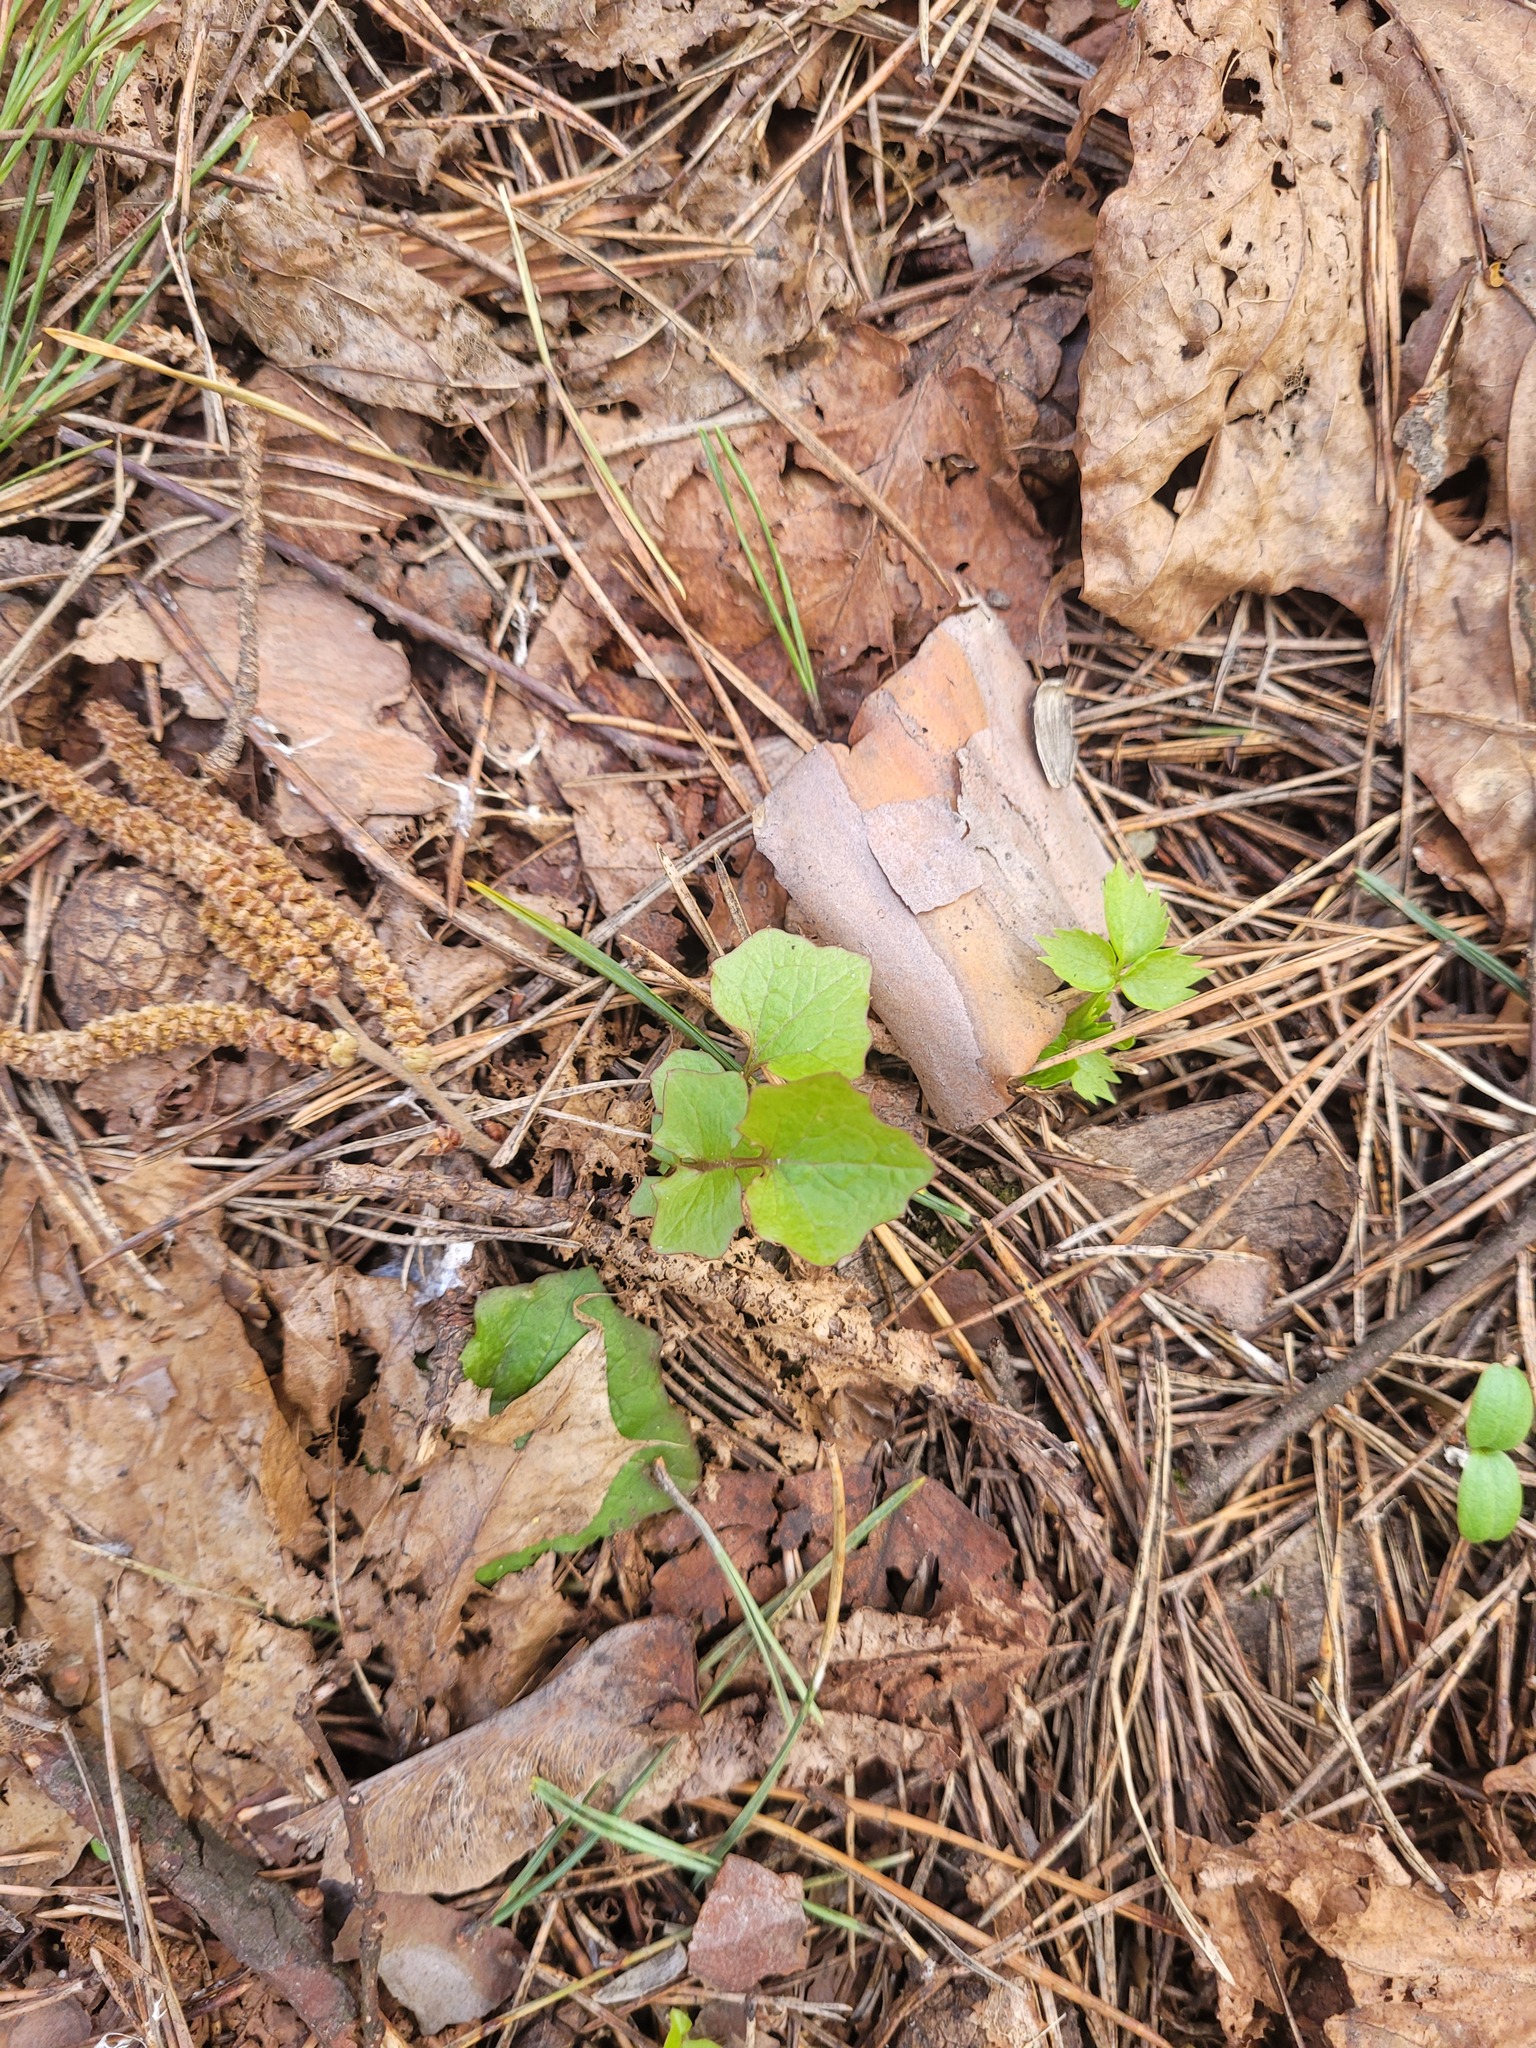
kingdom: Plantae
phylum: Tracheophyta
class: Magnoliopsida
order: Asterales
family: Asteraceae
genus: Mycelis
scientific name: Mycelis muralis
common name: Wall lettuce
